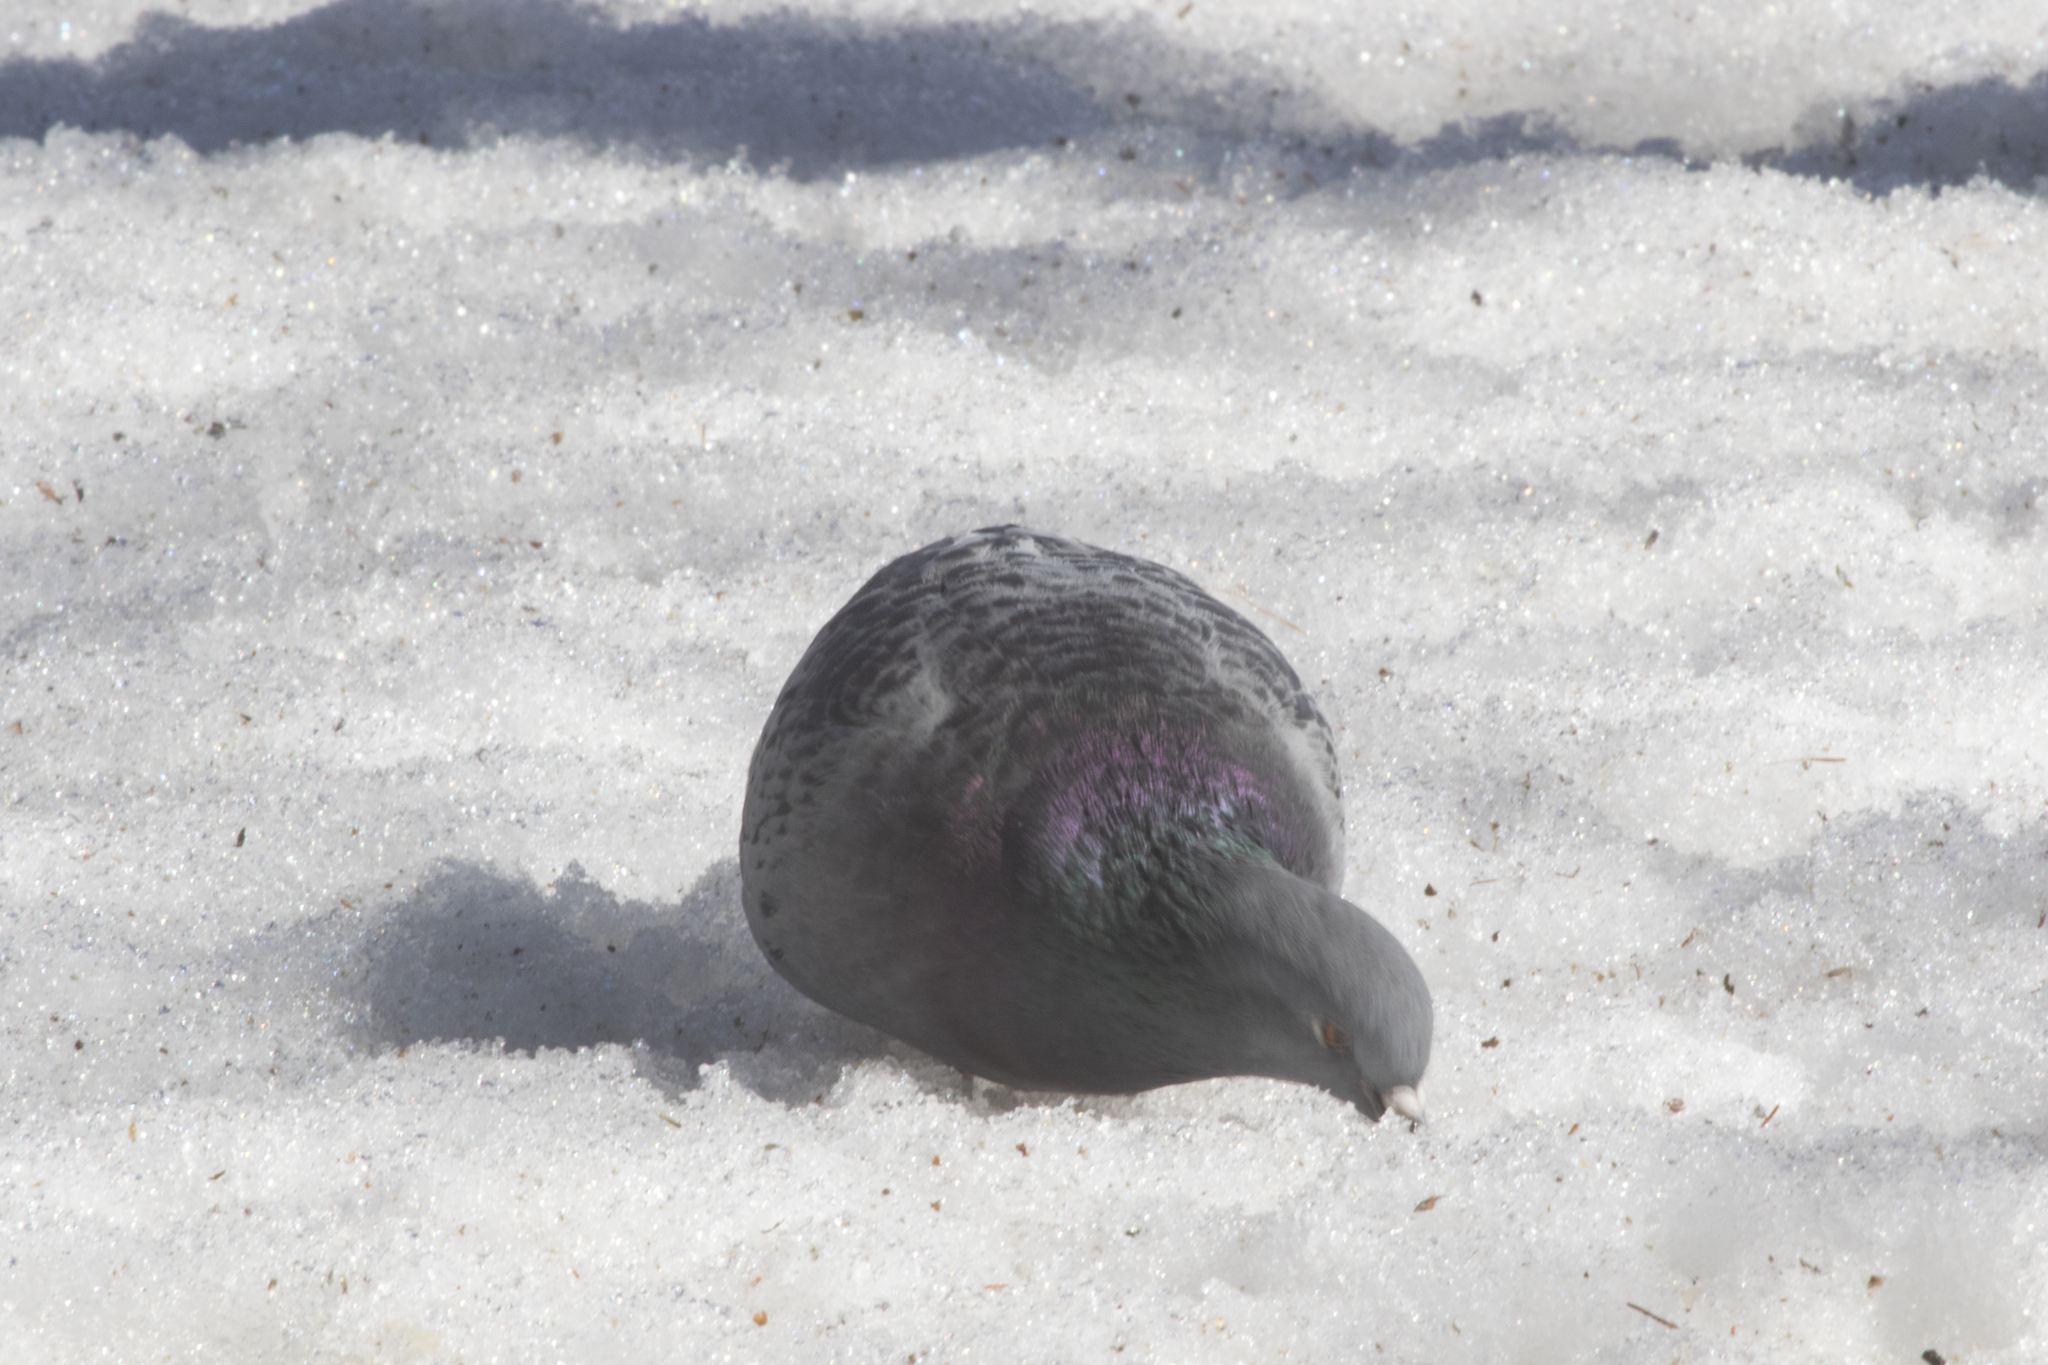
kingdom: Animalia
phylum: Chordata
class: Aves
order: Columbiformes
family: Columbidae
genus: Columba
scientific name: Columba livia
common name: Rock pigeon
